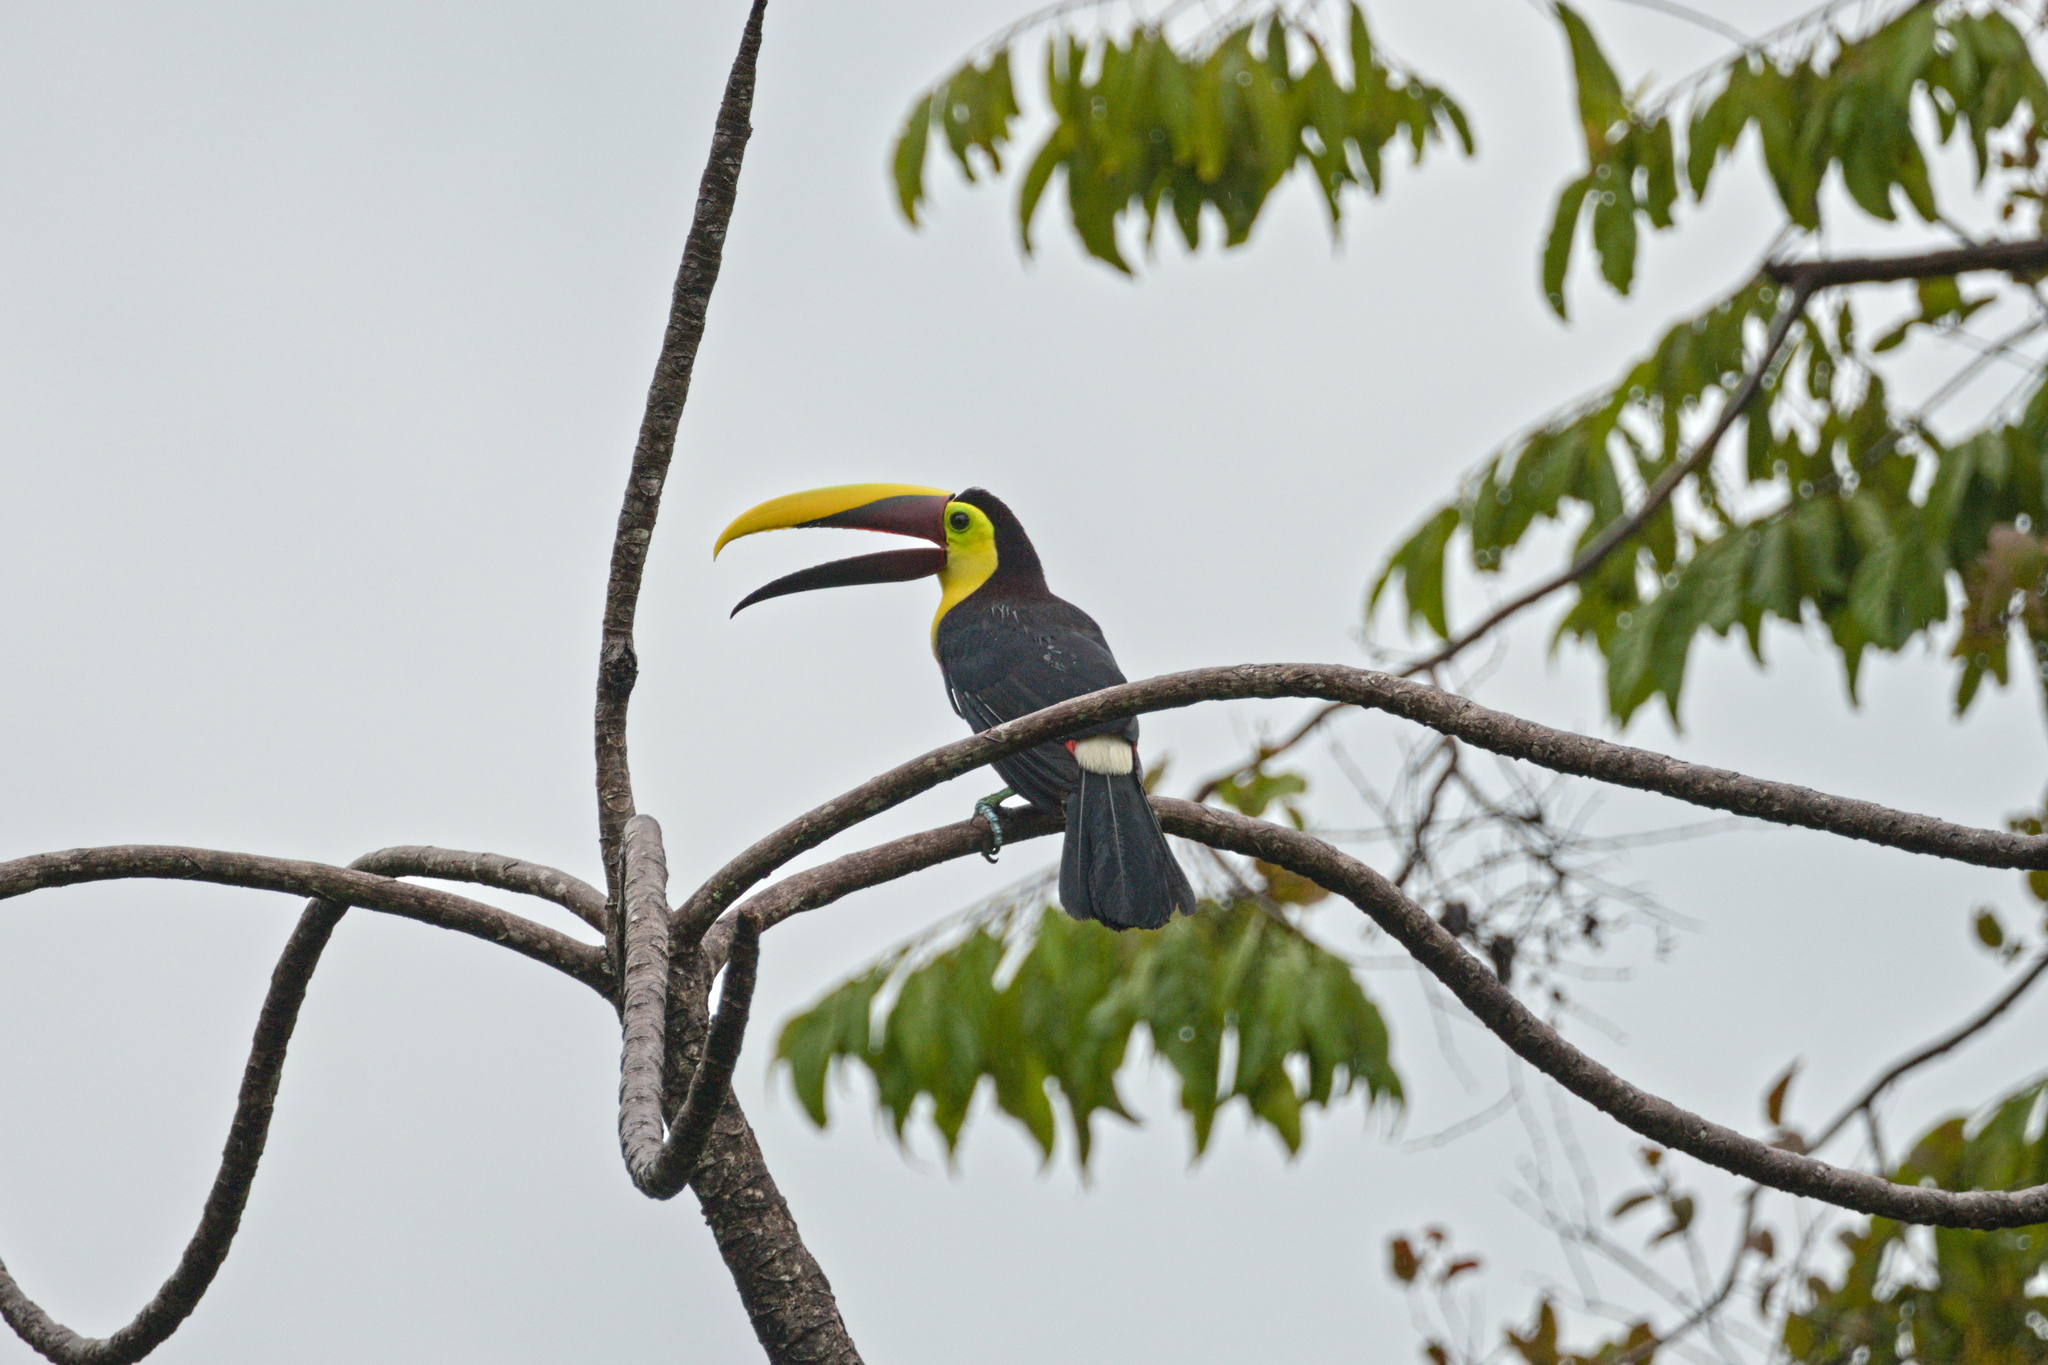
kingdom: Animalia
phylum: Chordata
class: Aves
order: Piciformes
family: Ramphastidae
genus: Ramphastos
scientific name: Ramphastos ambiguus
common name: Yellow-throated toucan
